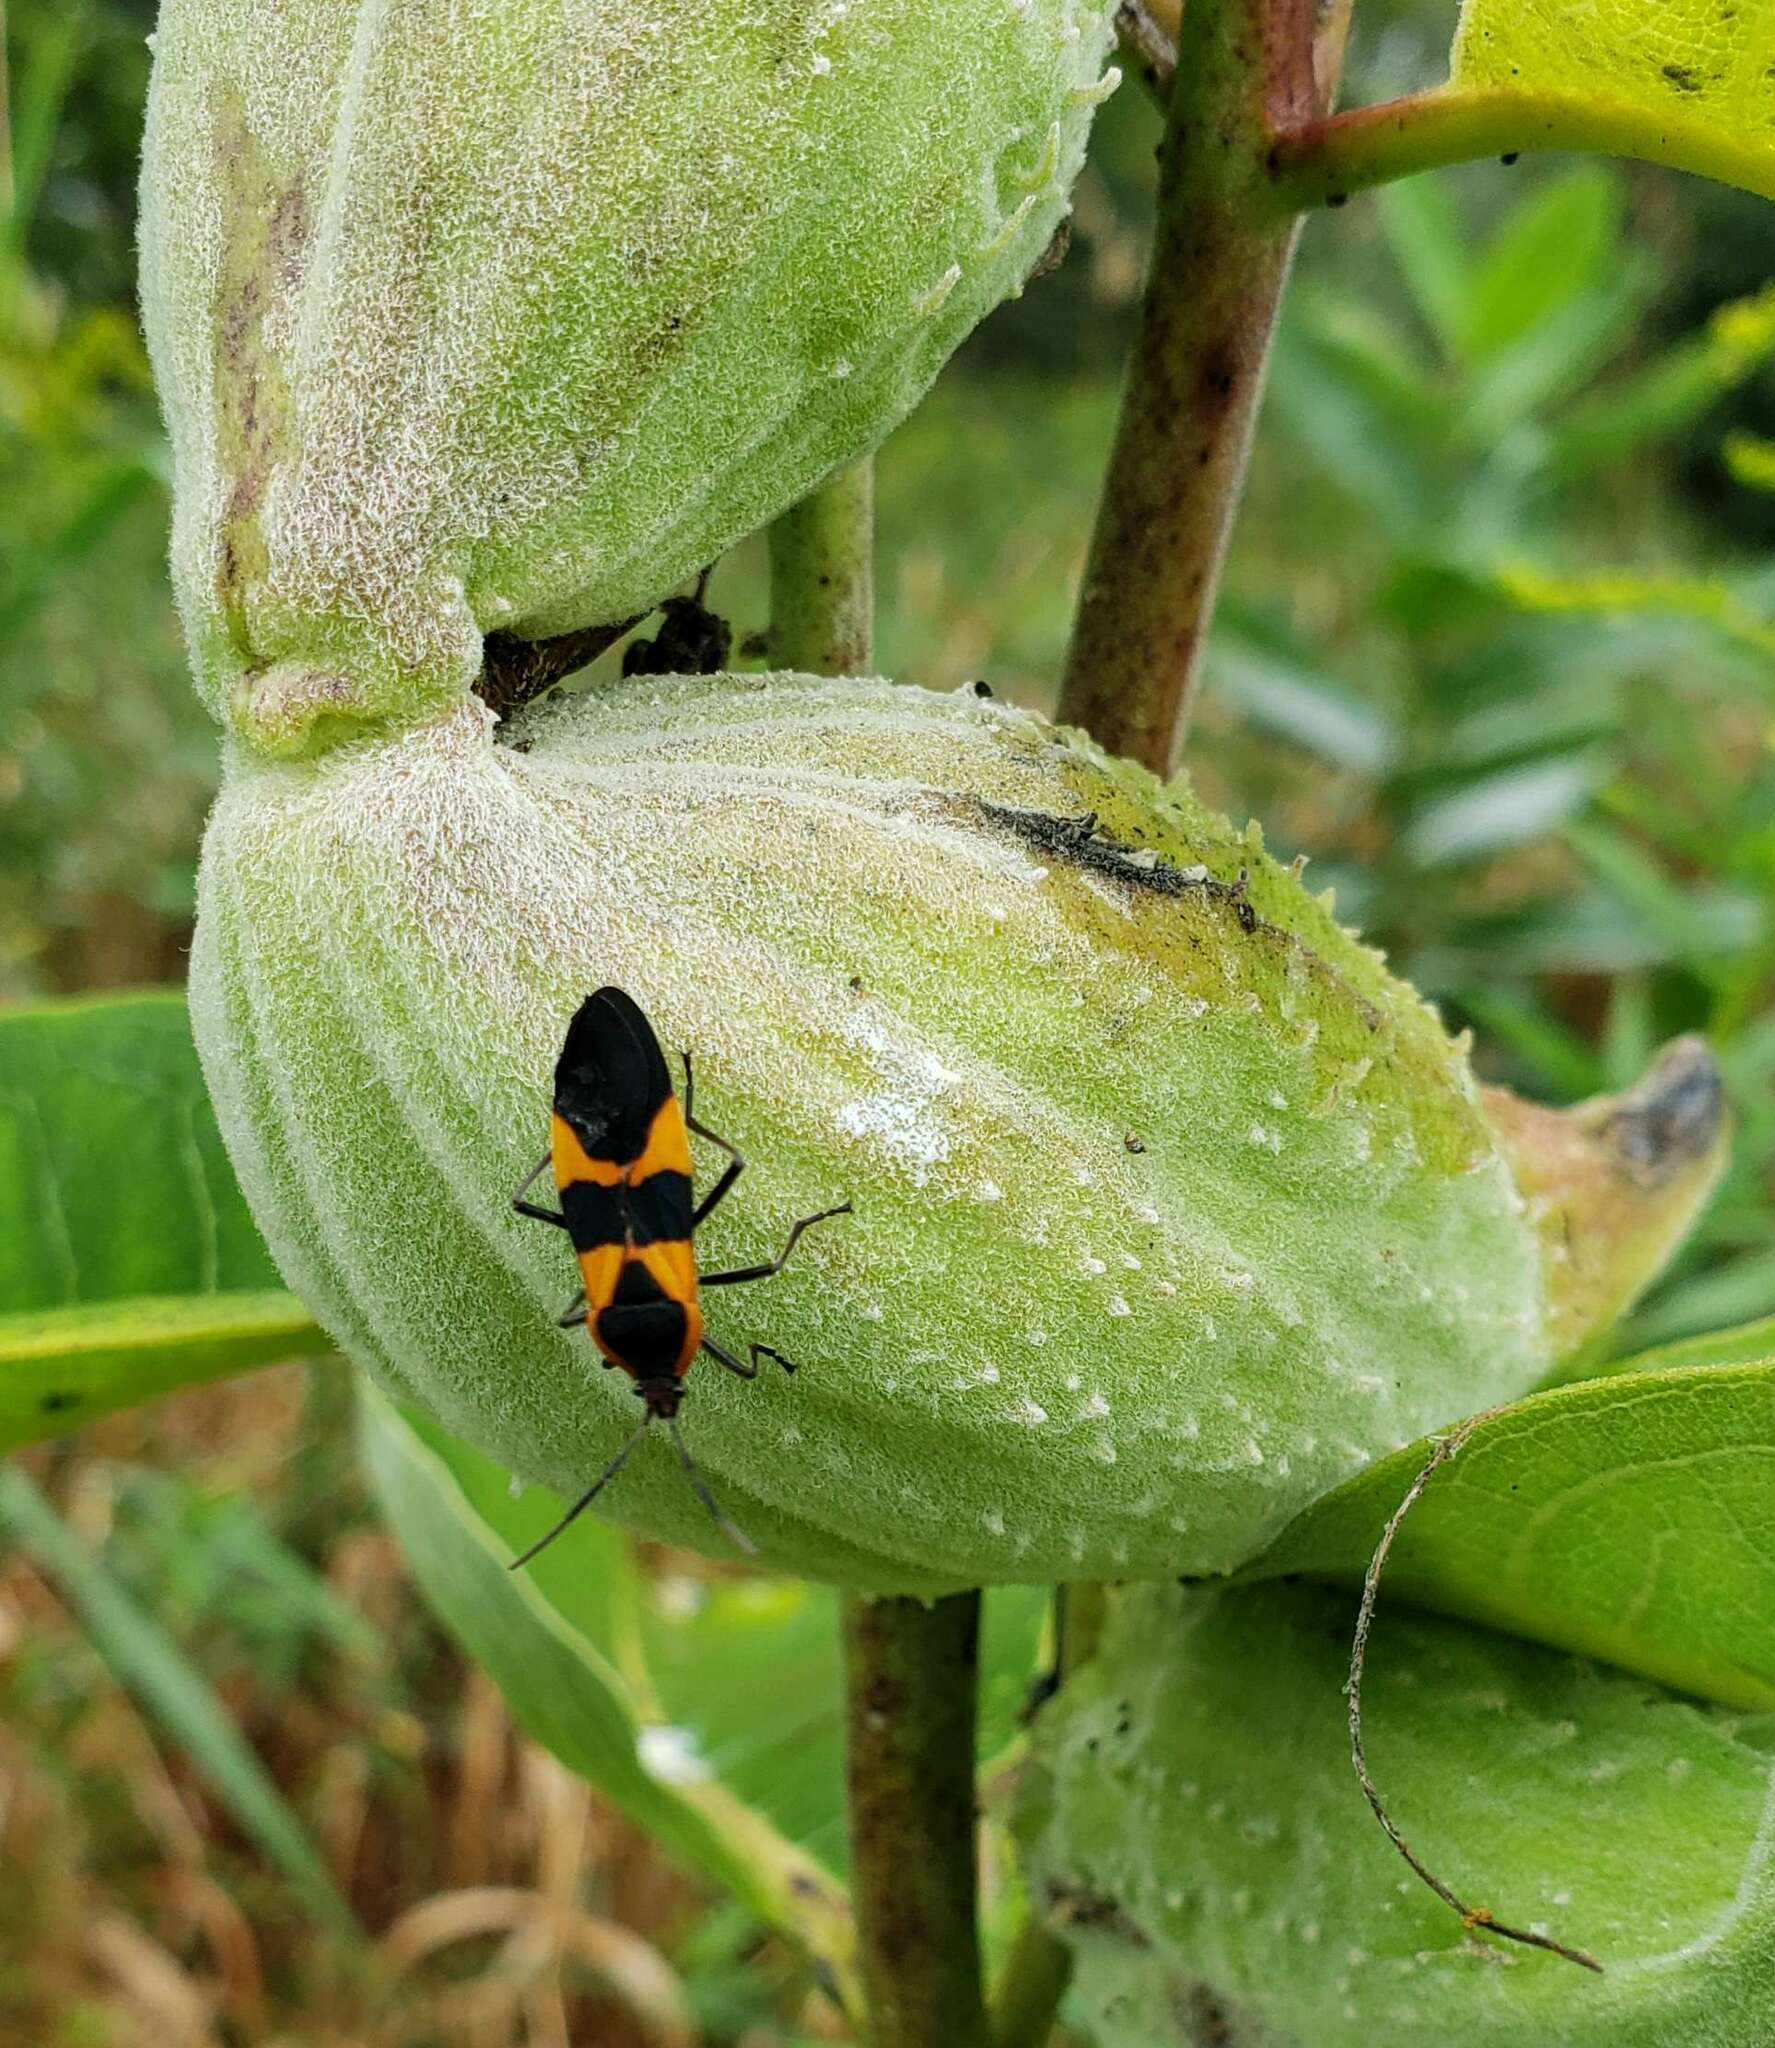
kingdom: Animalia
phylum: Arthropoda
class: Insecta
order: Hemiptera
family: Lygaeidae
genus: Oncopeltus
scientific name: Oncopeltus fasciatus
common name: Large milkweed bug
